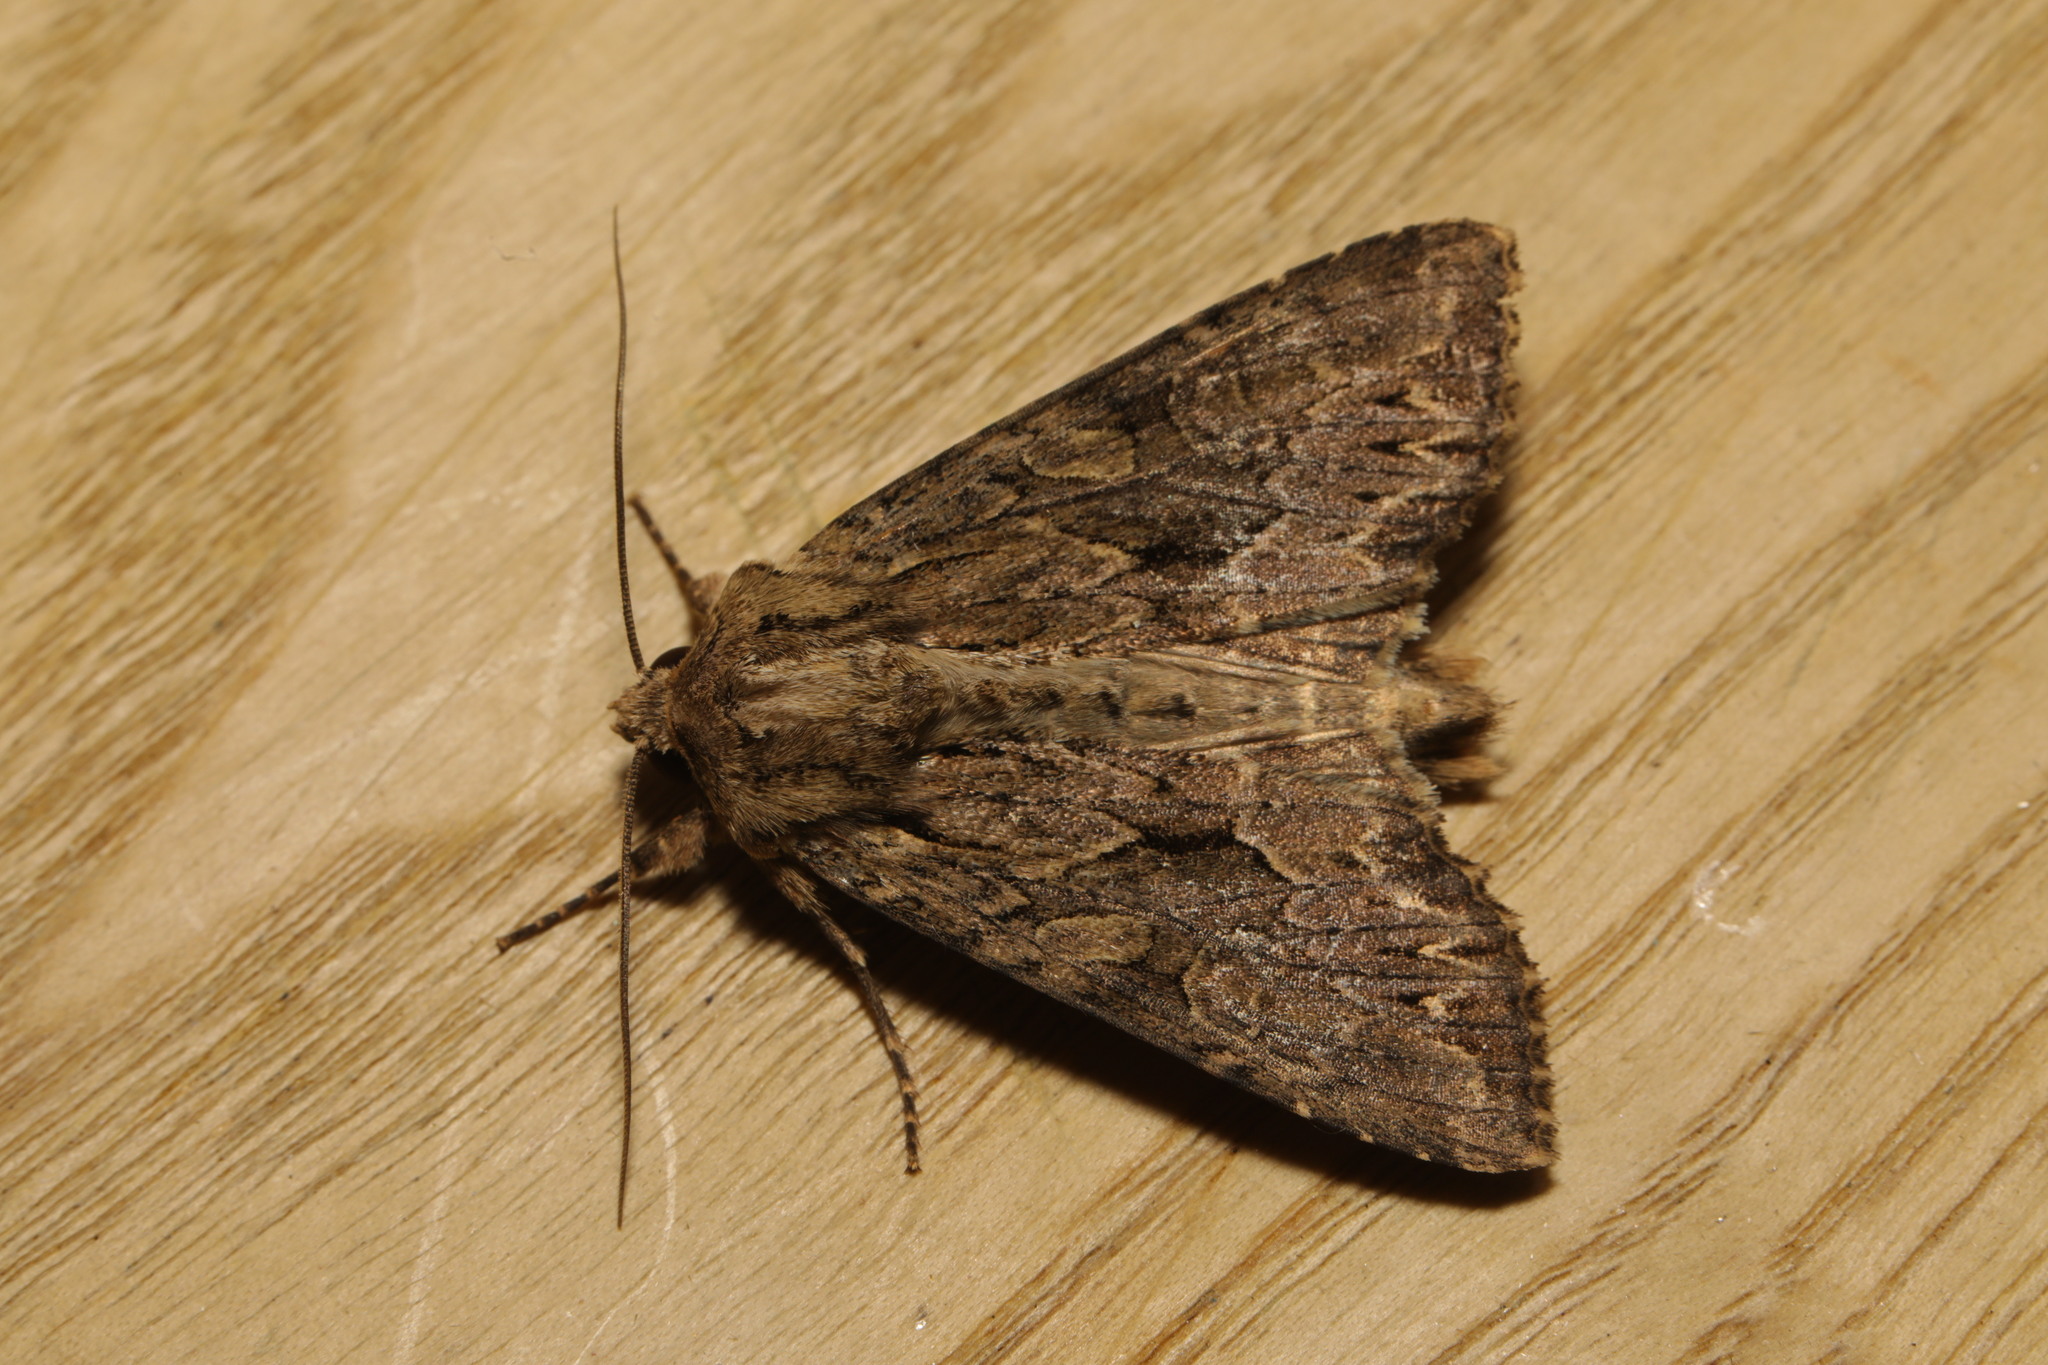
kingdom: Animalia
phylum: Arthropoda
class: Insecta
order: Lepidoptera
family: Noctuidae
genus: Apamea
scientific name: Apamea monoglypha
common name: Dark arches
